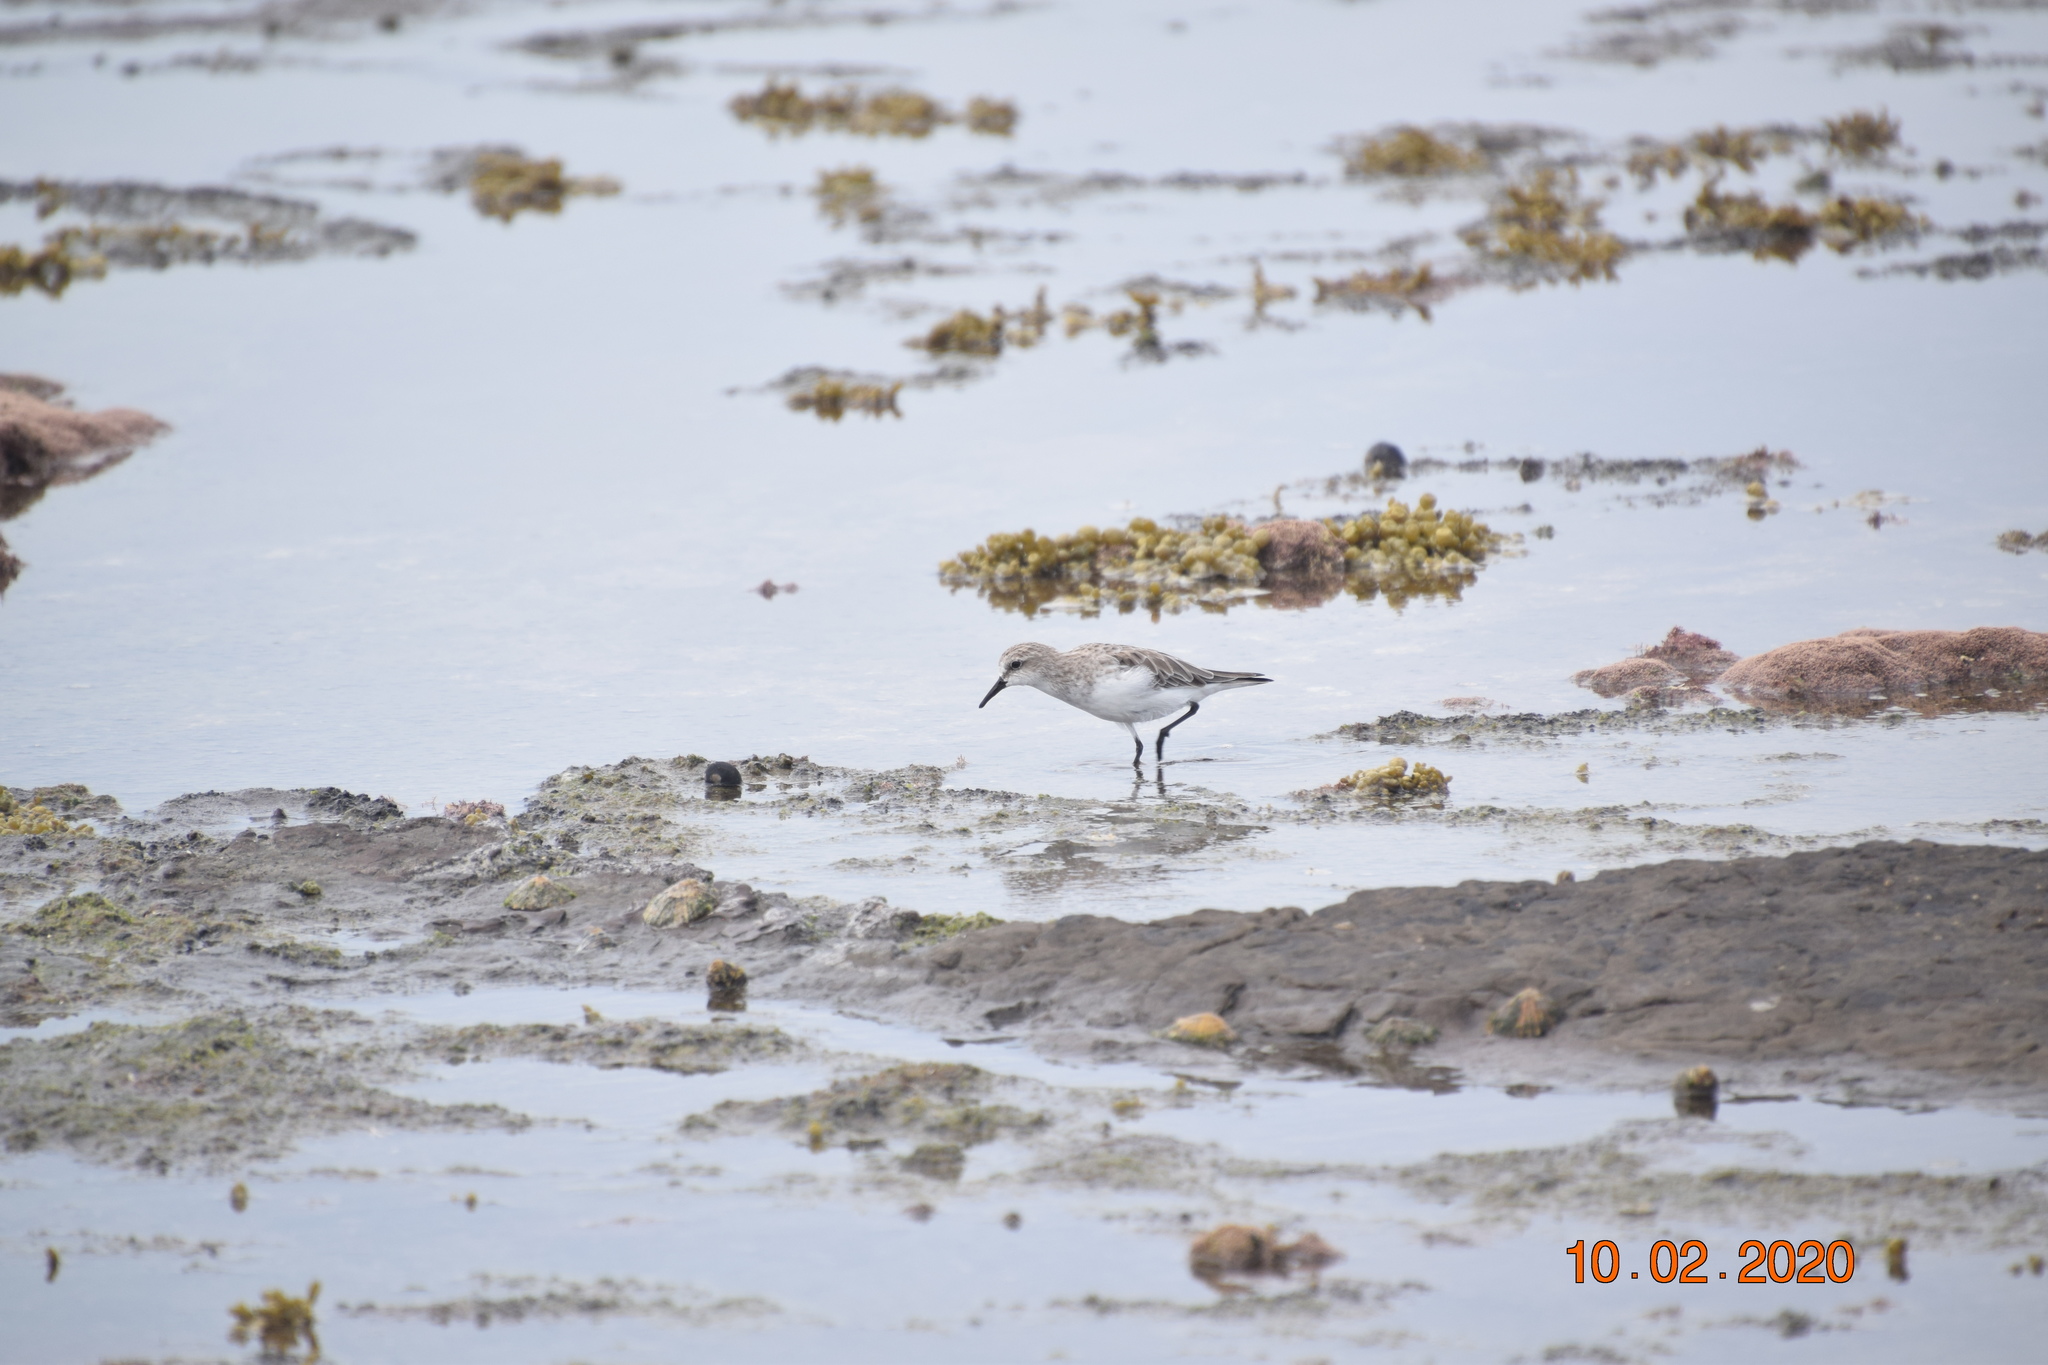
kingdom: Animalia
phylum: Chordata
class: Aves
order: Charadriiformes
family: Scolopacidae
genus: Calidris
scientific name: Calidris ruficollis
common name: Red-necked stint
